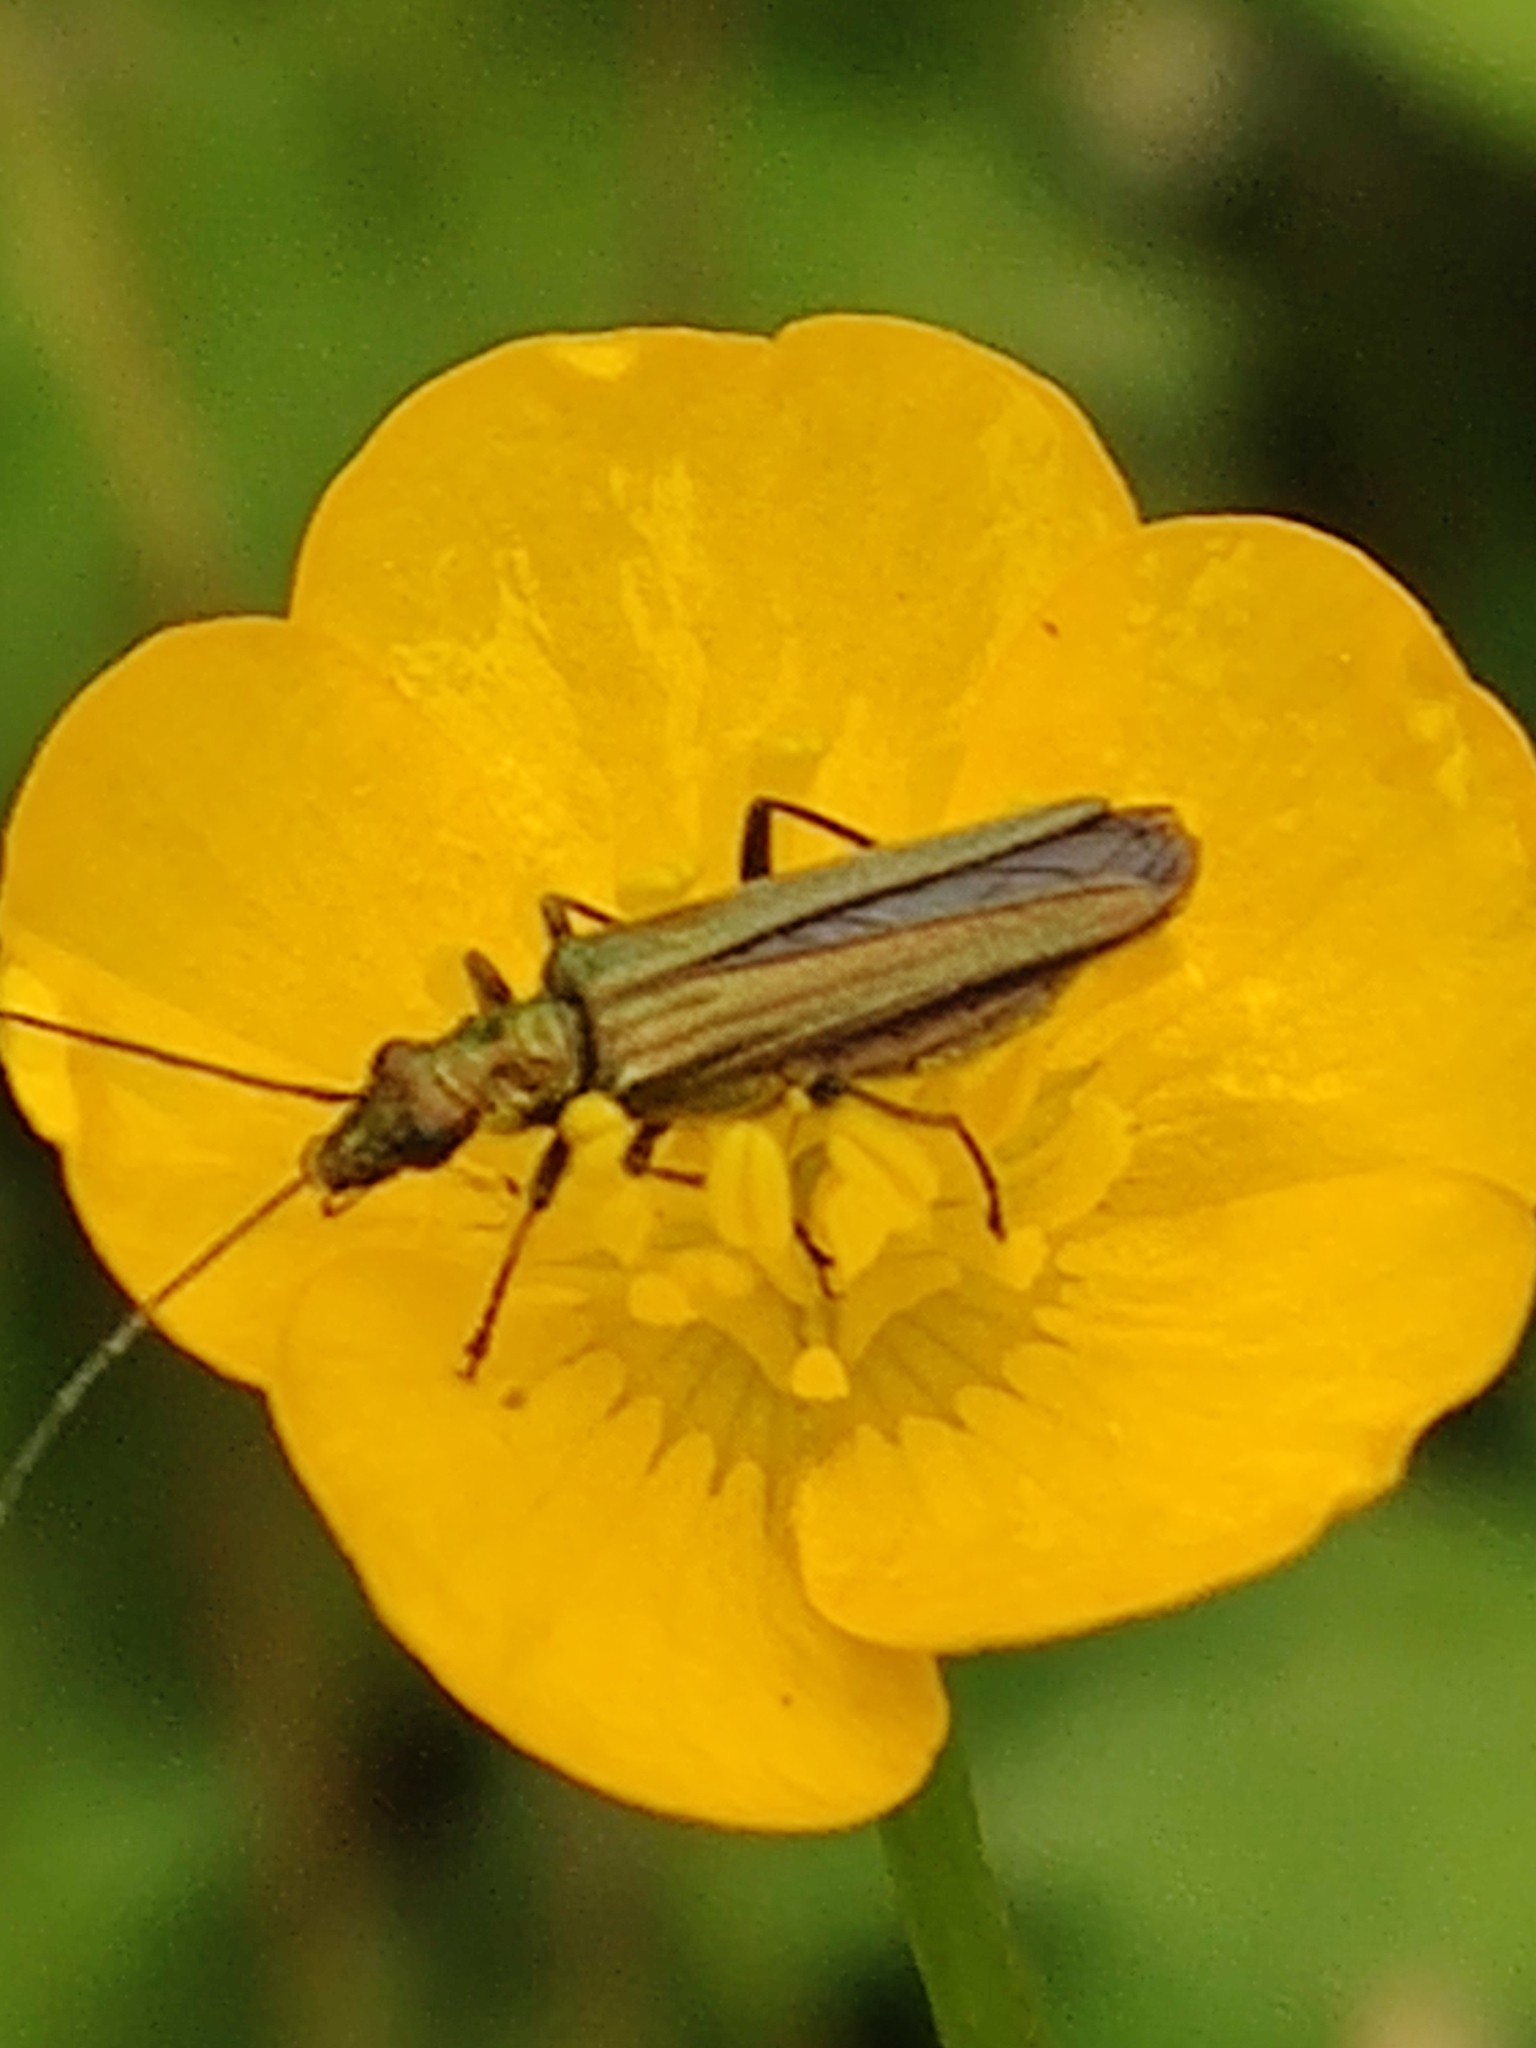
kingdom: Animalia
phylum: Arthropoda
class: Insecta
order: Coleoptera
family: Oedemeridae
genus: Oedemera
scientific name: Oedemera nobilis
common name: Swollen-thighed beetle
